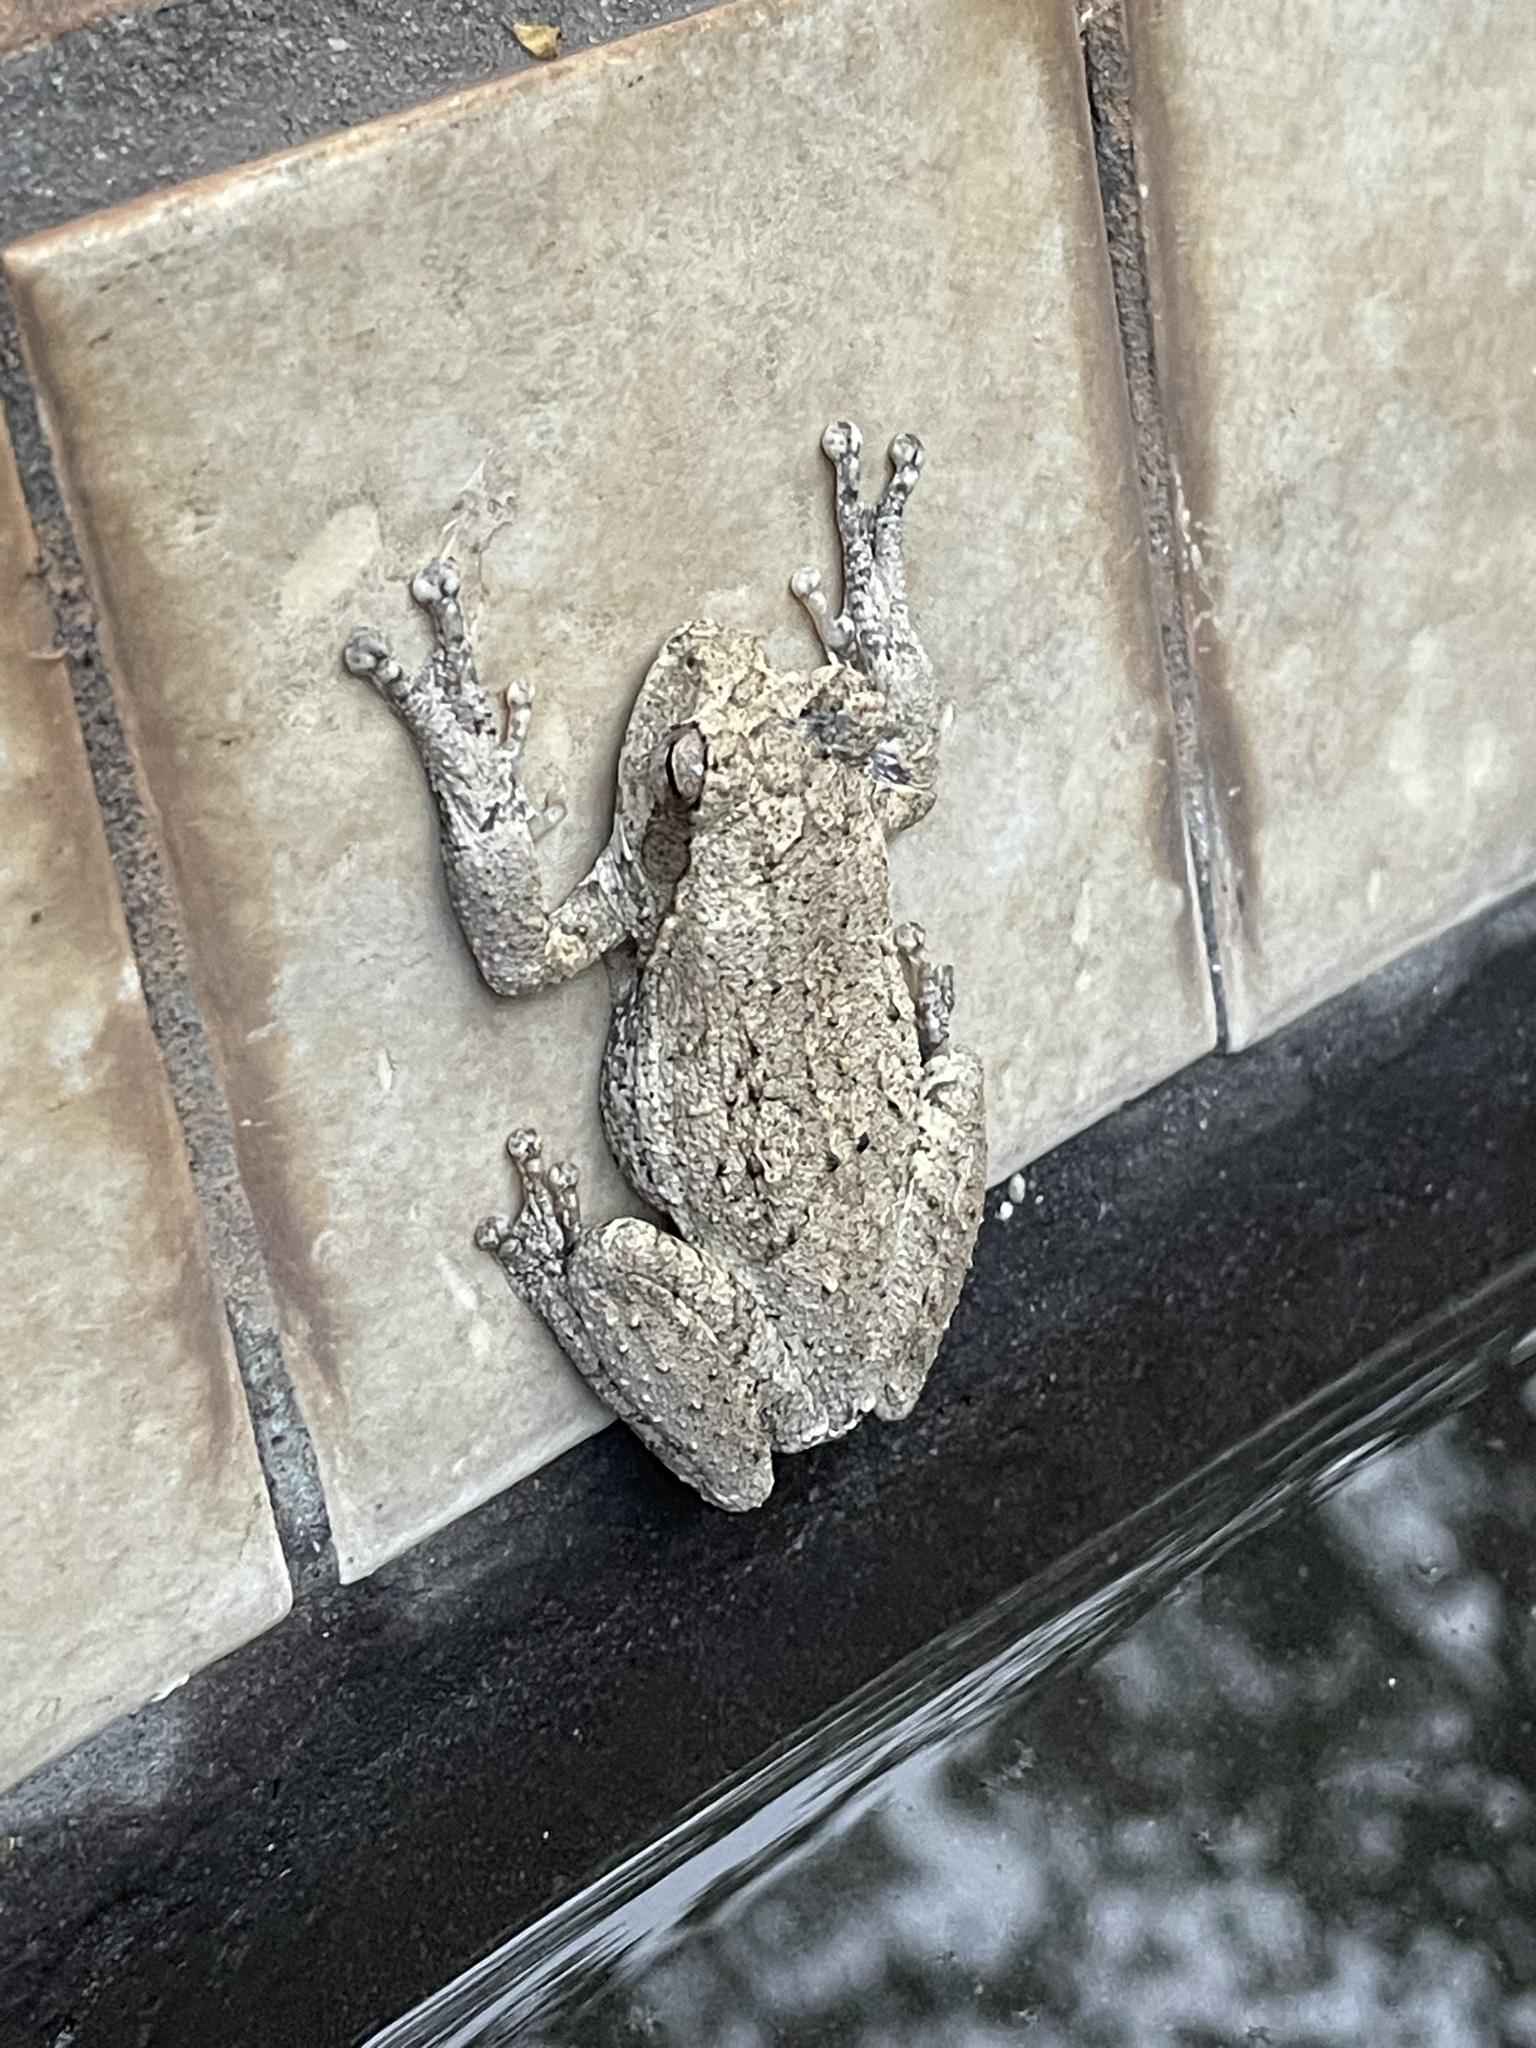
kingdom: Animalia
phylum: Chordata
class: Amphibia
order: Anura
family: Rhacophoridae
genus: Chiromantis
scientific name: Chiromantis xerampelina
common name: African gray treefrog
